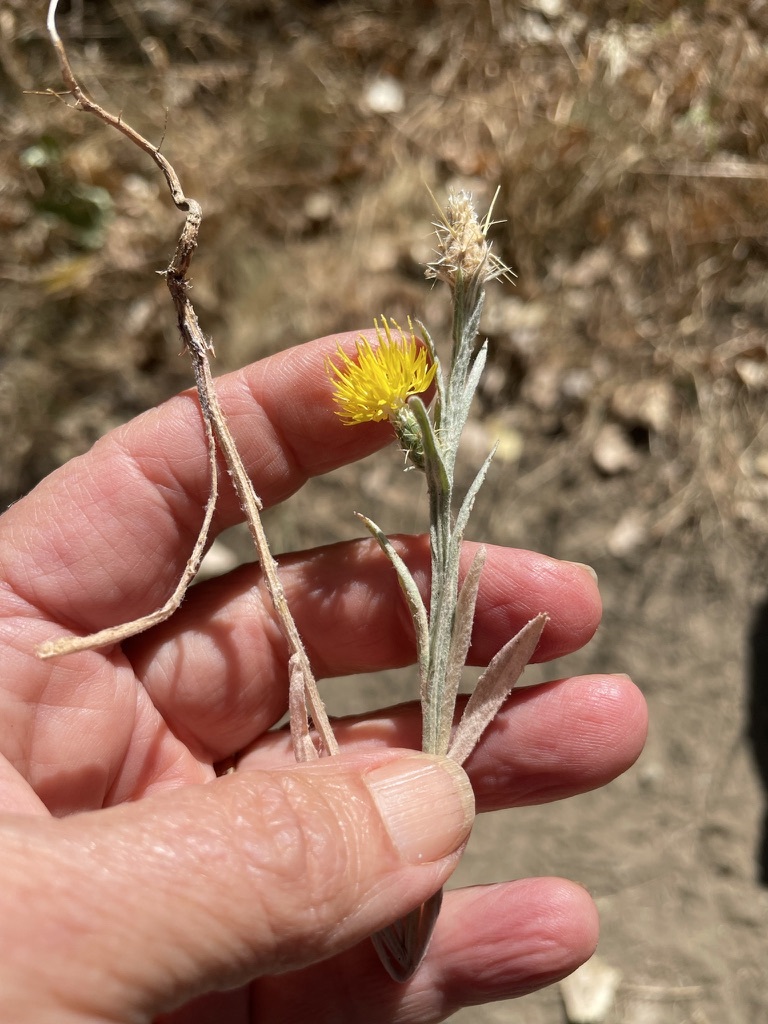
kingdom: Plantae
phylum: Tracheophyta
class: Magnoliopsida
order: Asterales
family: Asteraceae
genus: Centaurea
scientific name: Centaurea solstitialis
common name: Yellow star-thistle
